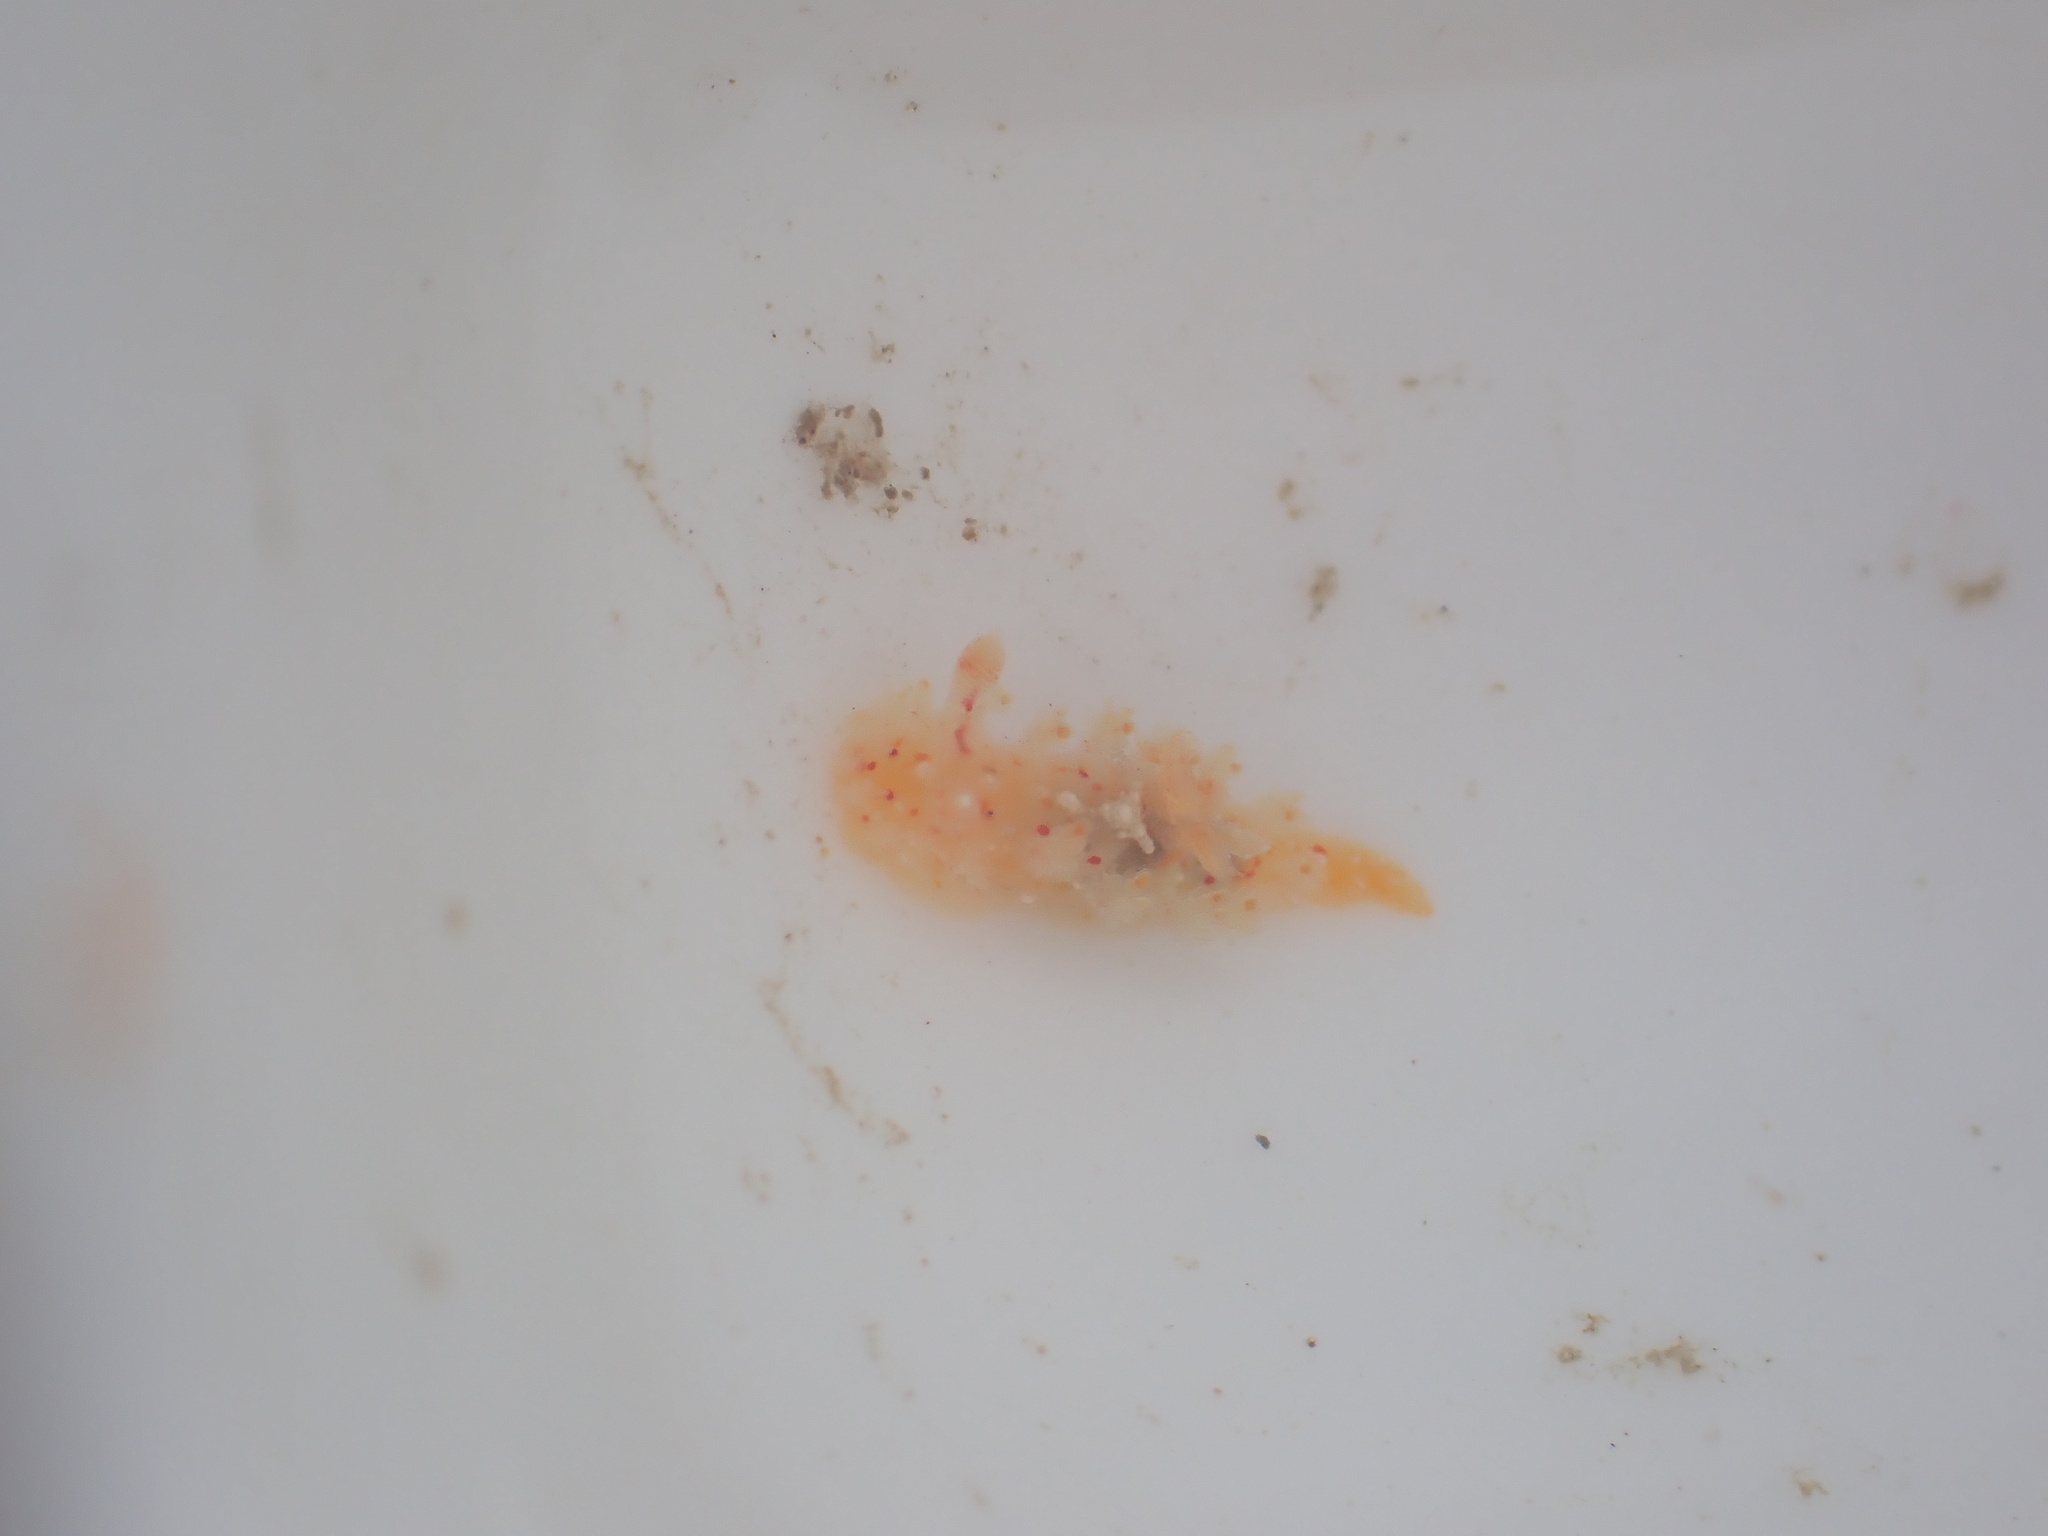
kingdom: Animalia
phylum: Mollusca
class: Gastropoda
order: Nudibranchia
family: Polyceridae
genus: Kaloplocamus
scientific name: Kaloplocamus ramosus
